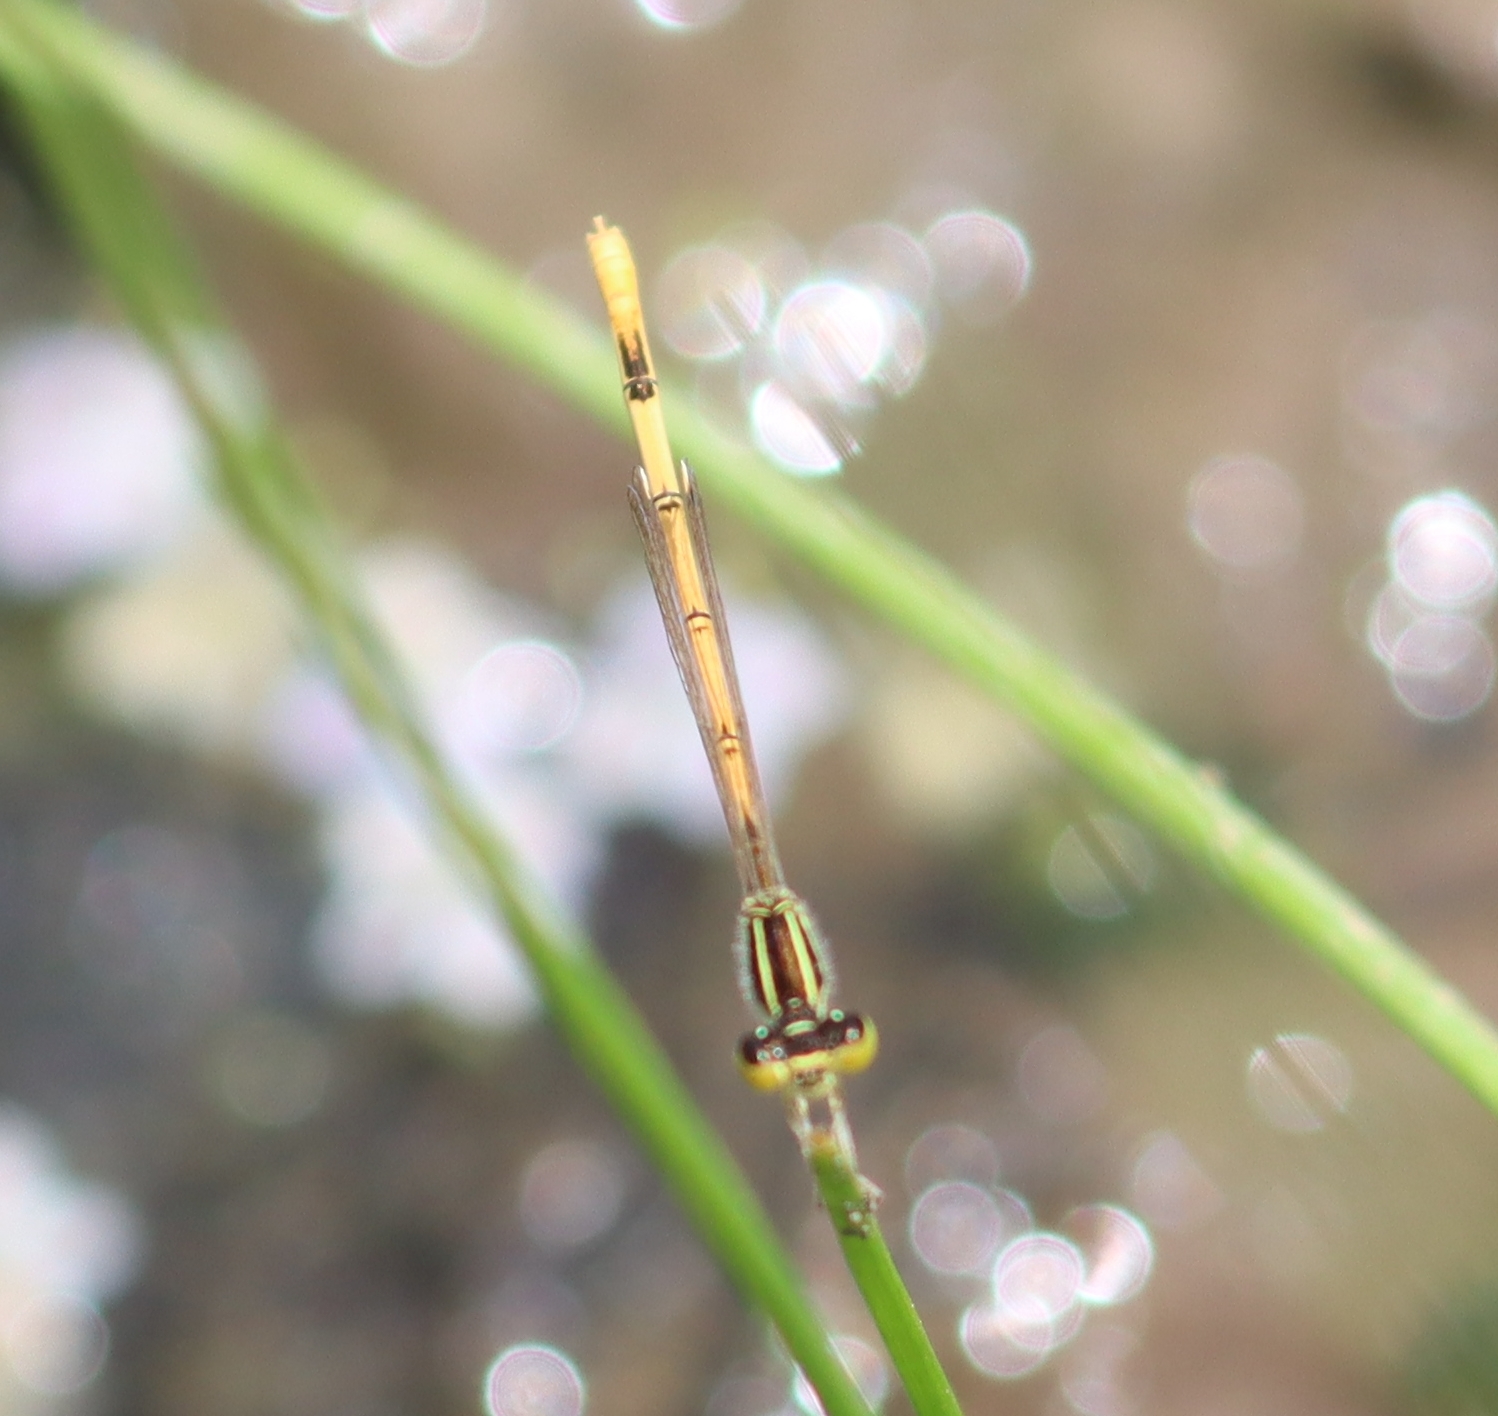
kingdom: Animalia
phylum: Arthropoda
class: Insecta
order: Odonata
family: Coenagrionidae
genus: Ischnura
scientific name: Ischnura hastata
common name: Citrine forktail
